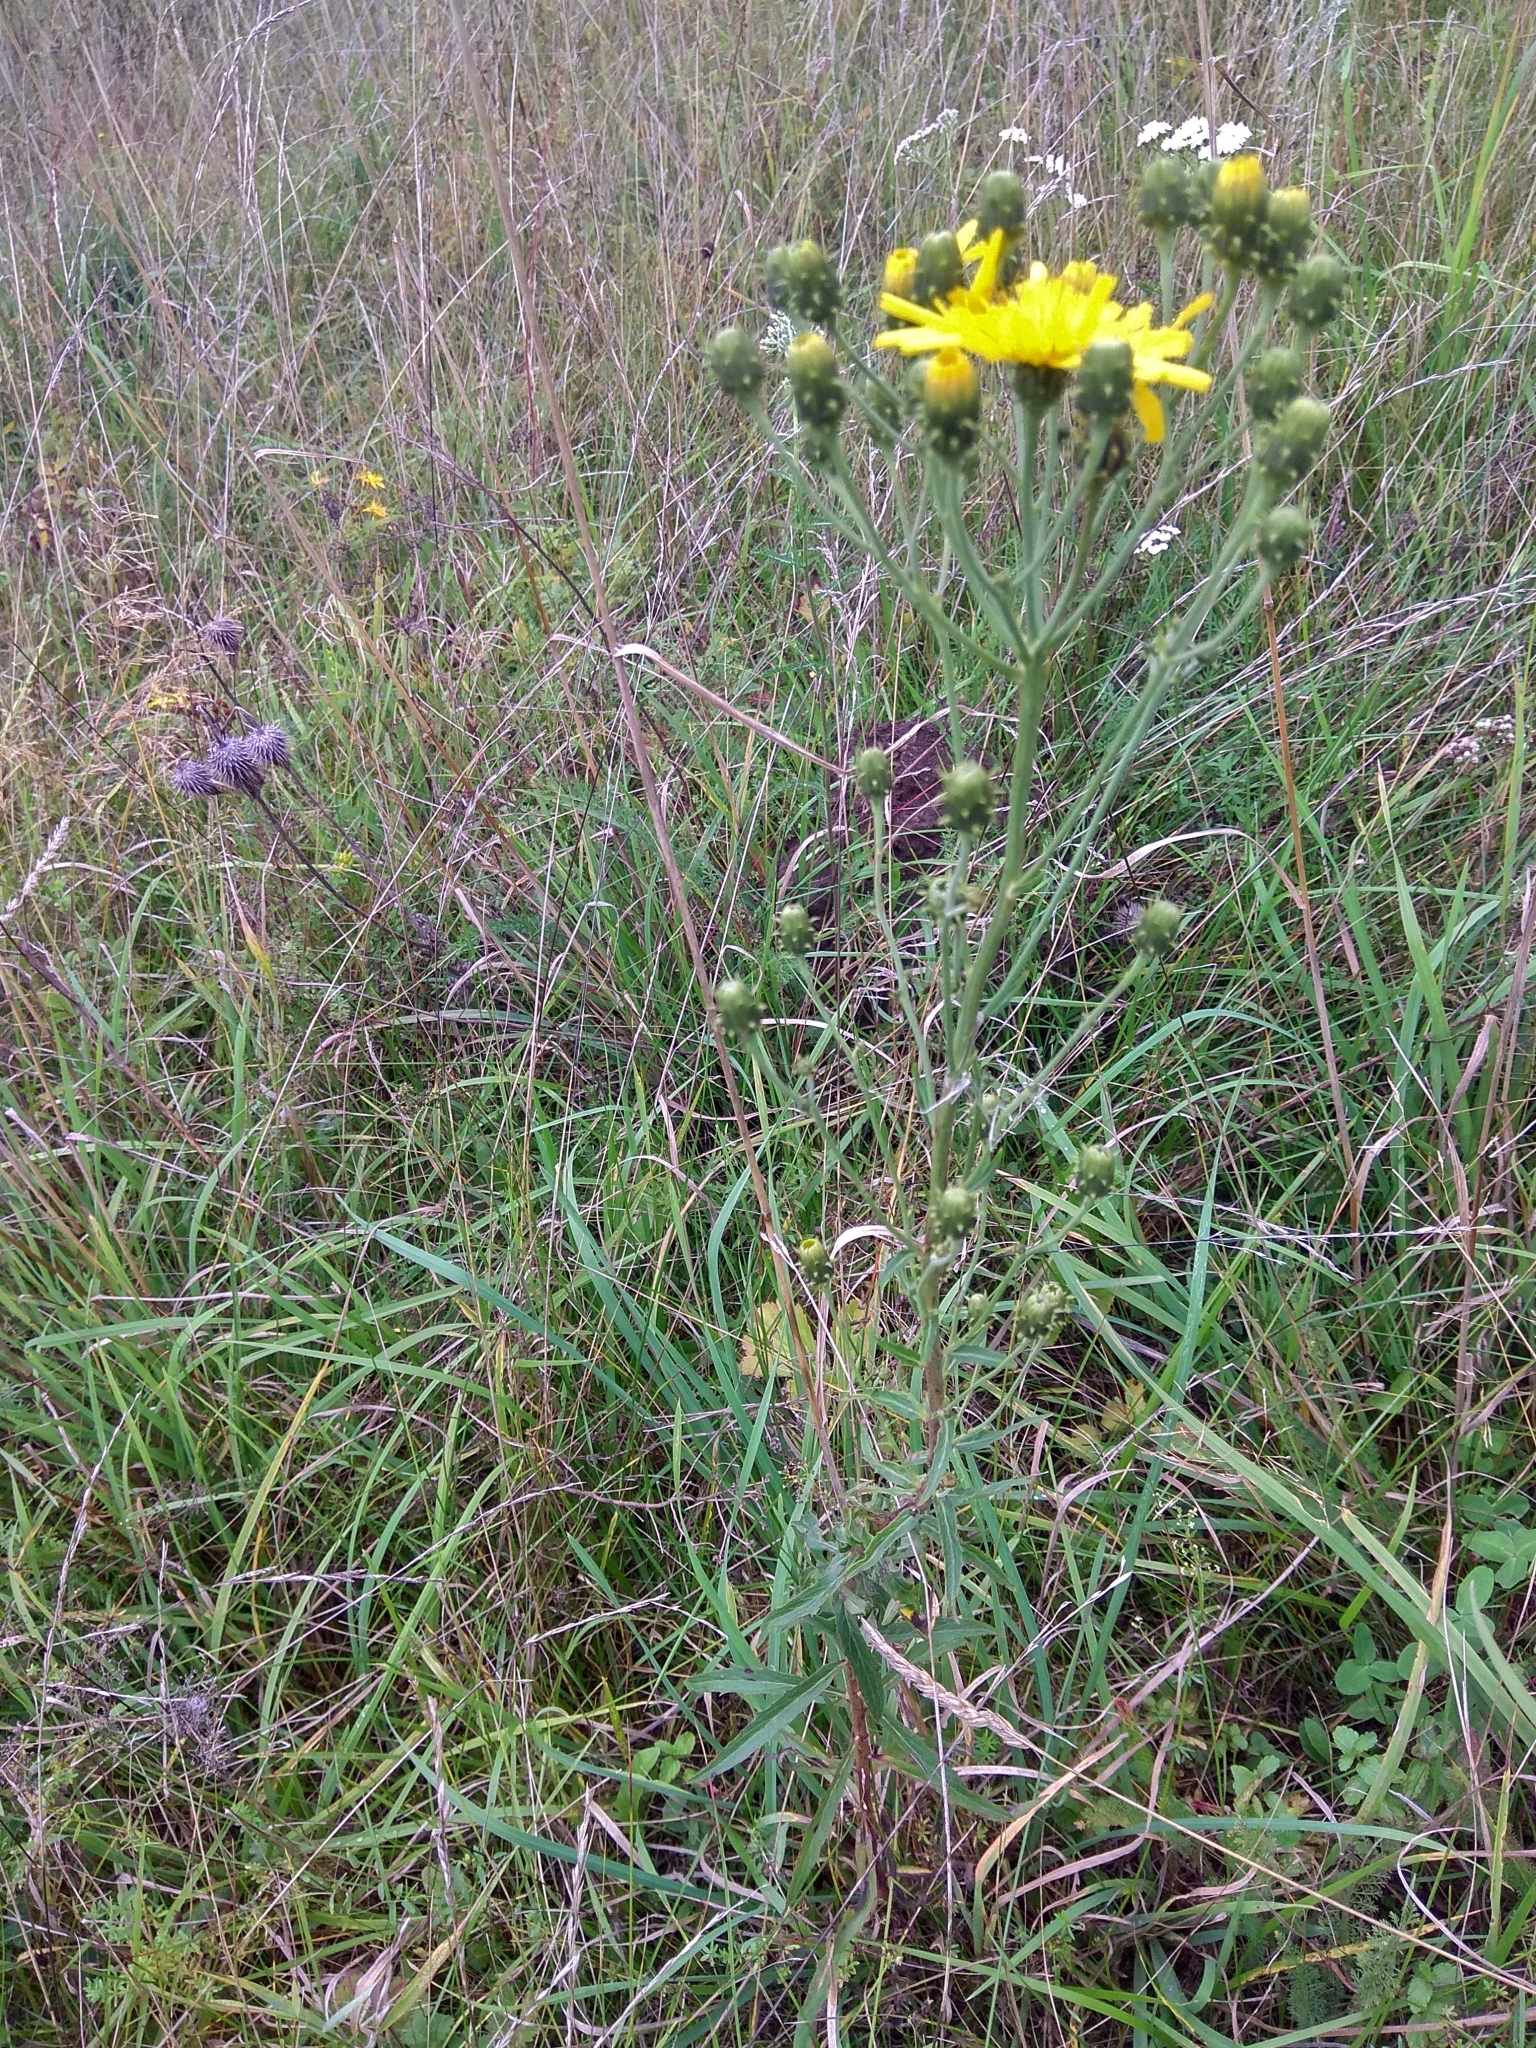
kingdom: Plantae
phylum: Tracheophyta
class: Magnoliopsida
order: Asterales
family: Asteraceae
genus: Hieracium
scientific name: Hieracium umbellatum
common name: Northern hawkweed
